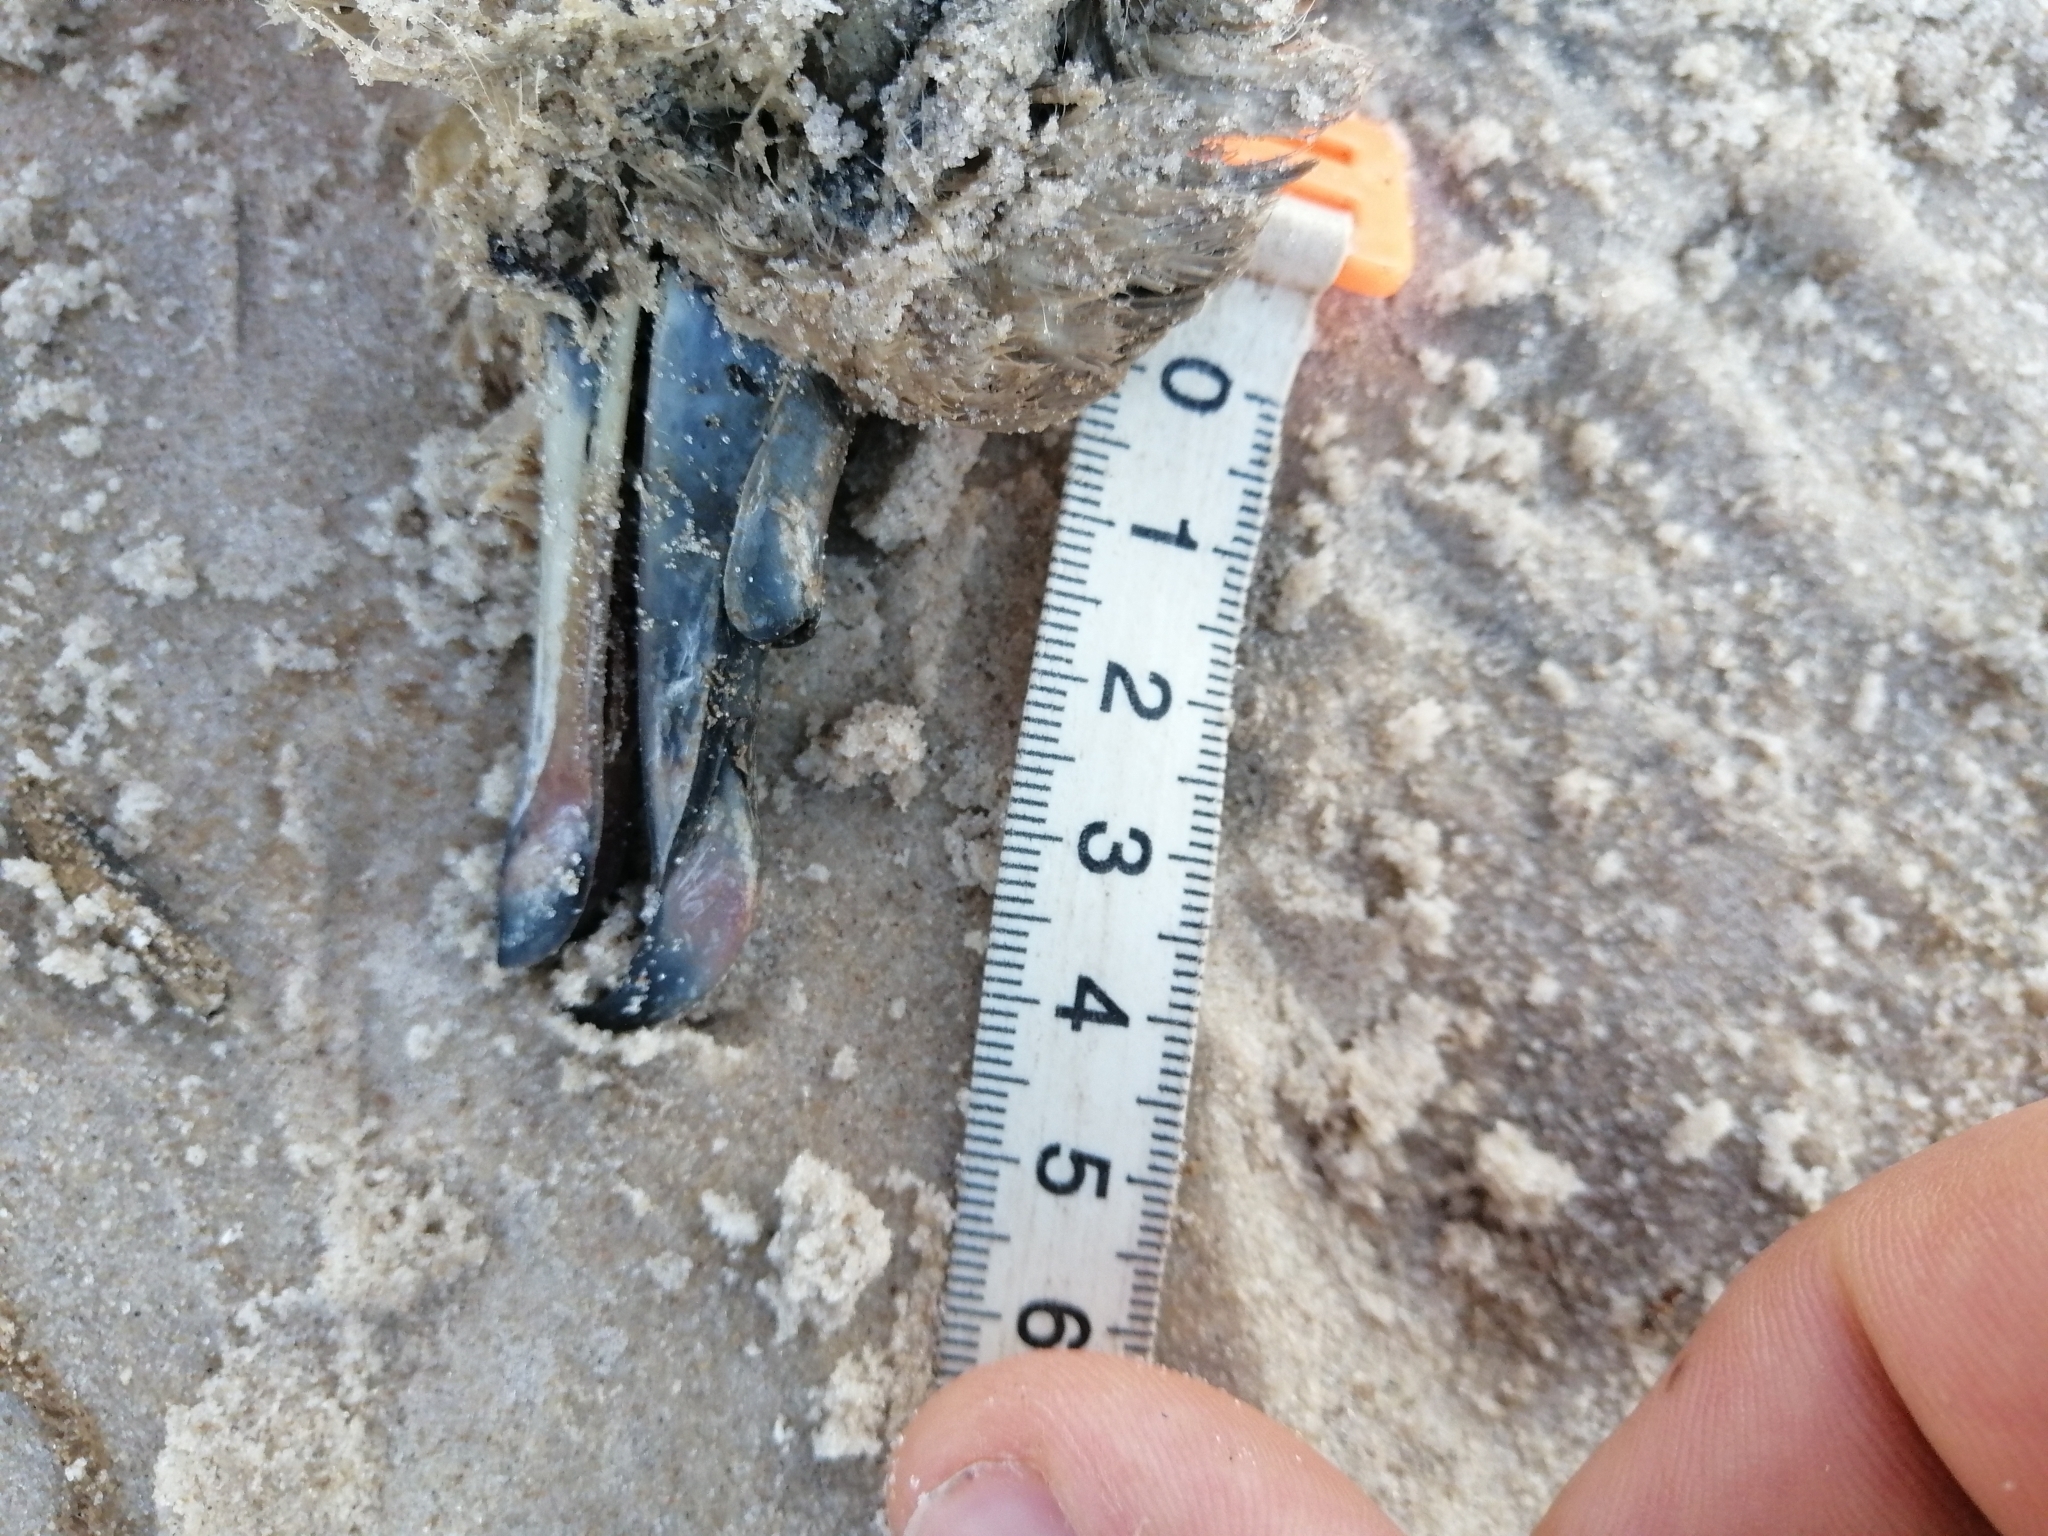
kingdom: Animalia
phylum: Chordata
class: Aves
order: Procellariiformes
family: Procellariidae
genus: Fulmarus
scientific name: Fulmarus glacialis
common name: Northern fulmar
